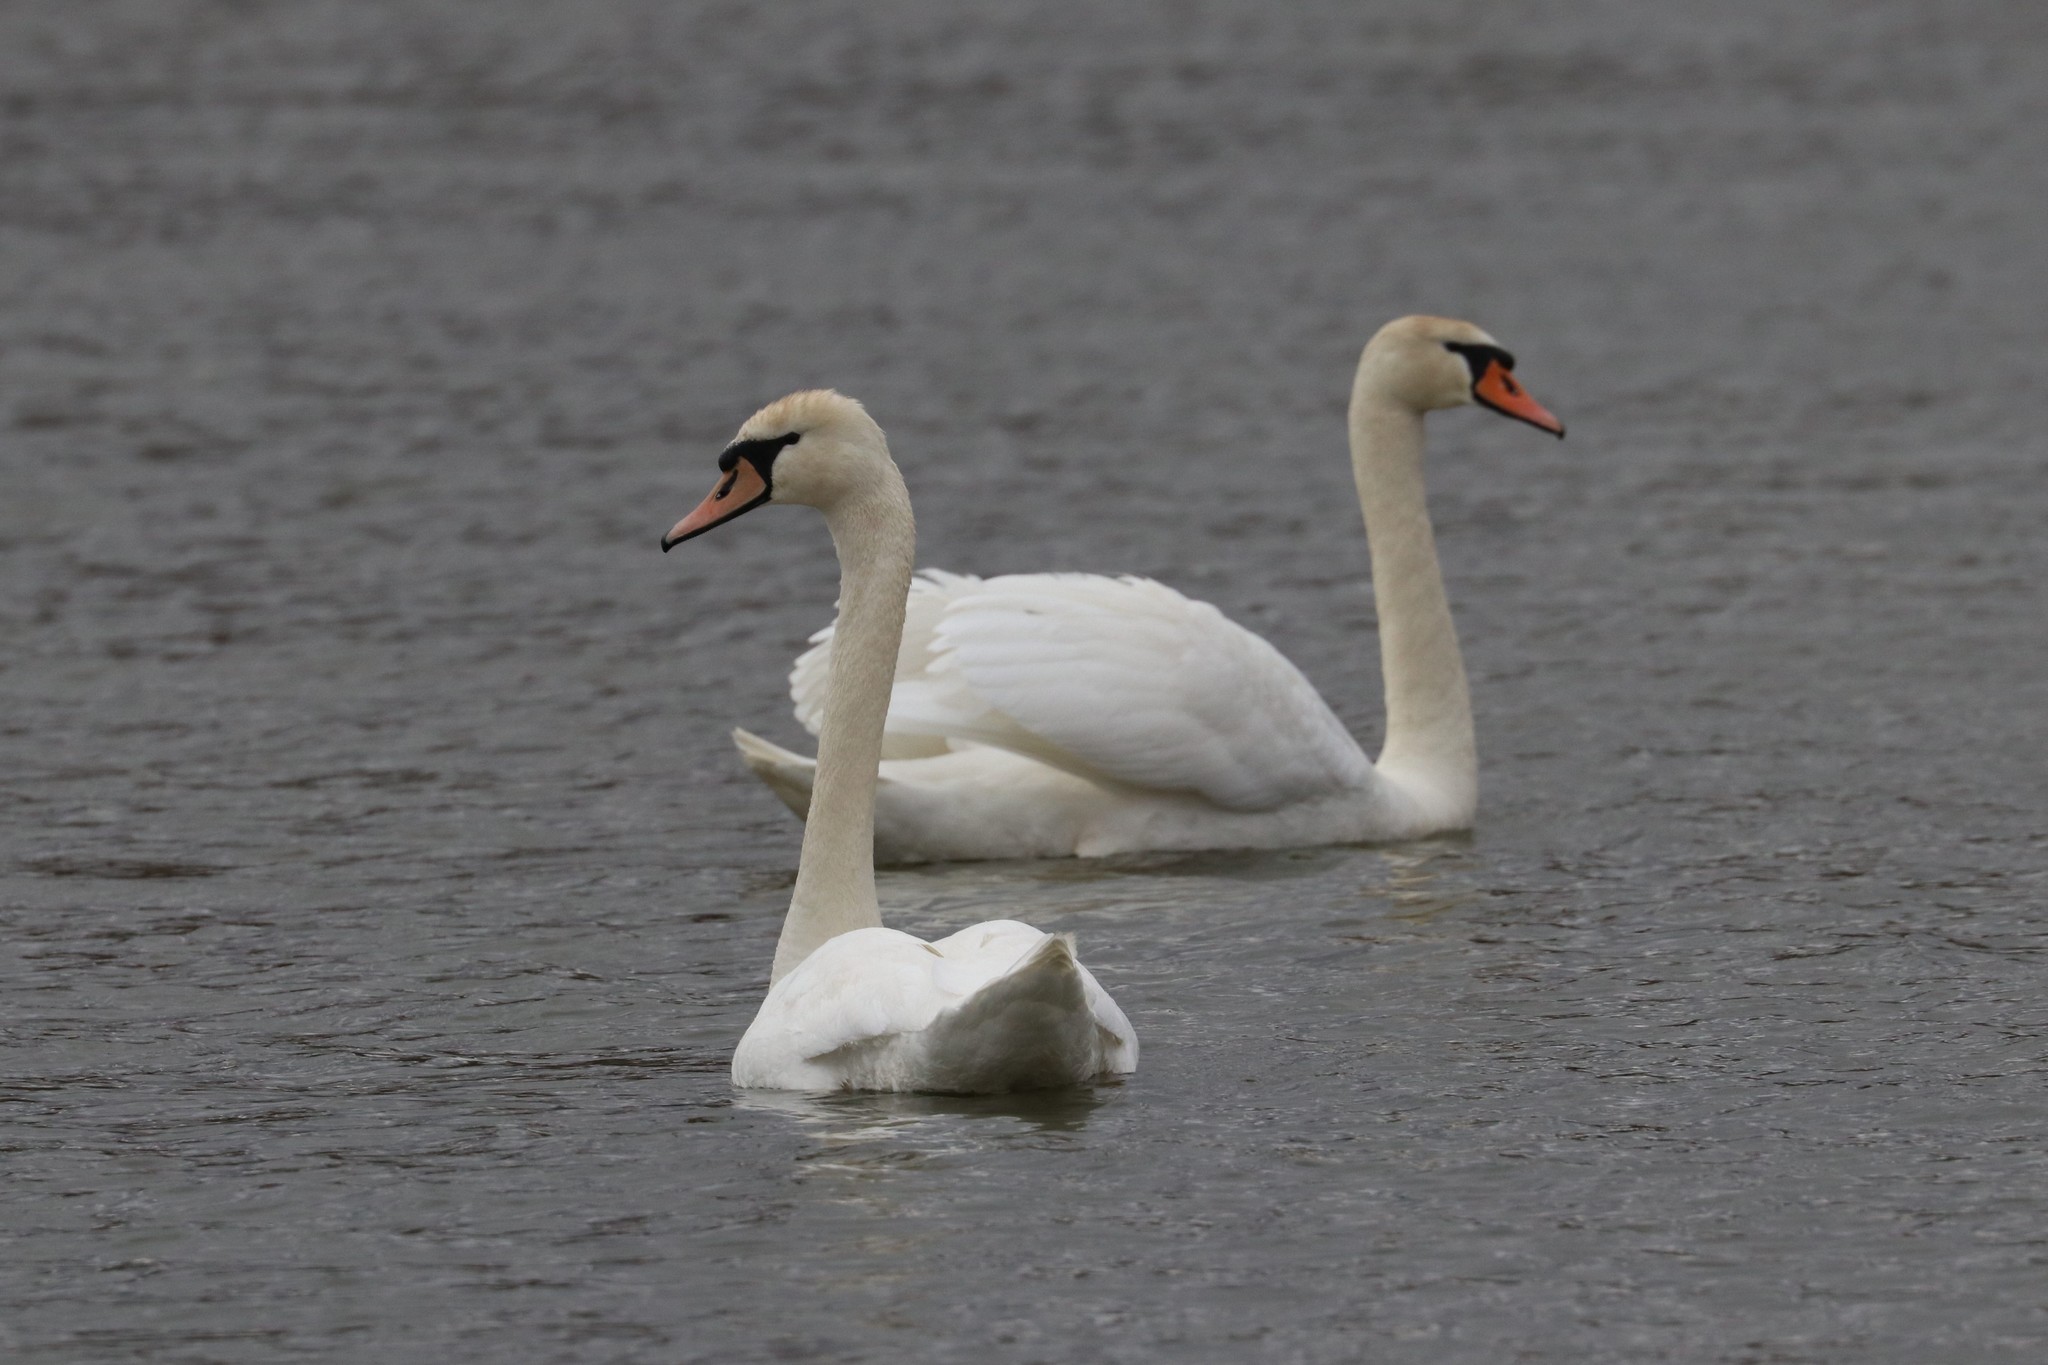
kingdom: Animalia
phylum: Chordata
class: Aves
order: Anseriformes
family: Anatidae
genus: Cygnus
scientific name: Cygnus olor
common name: Mute swan
